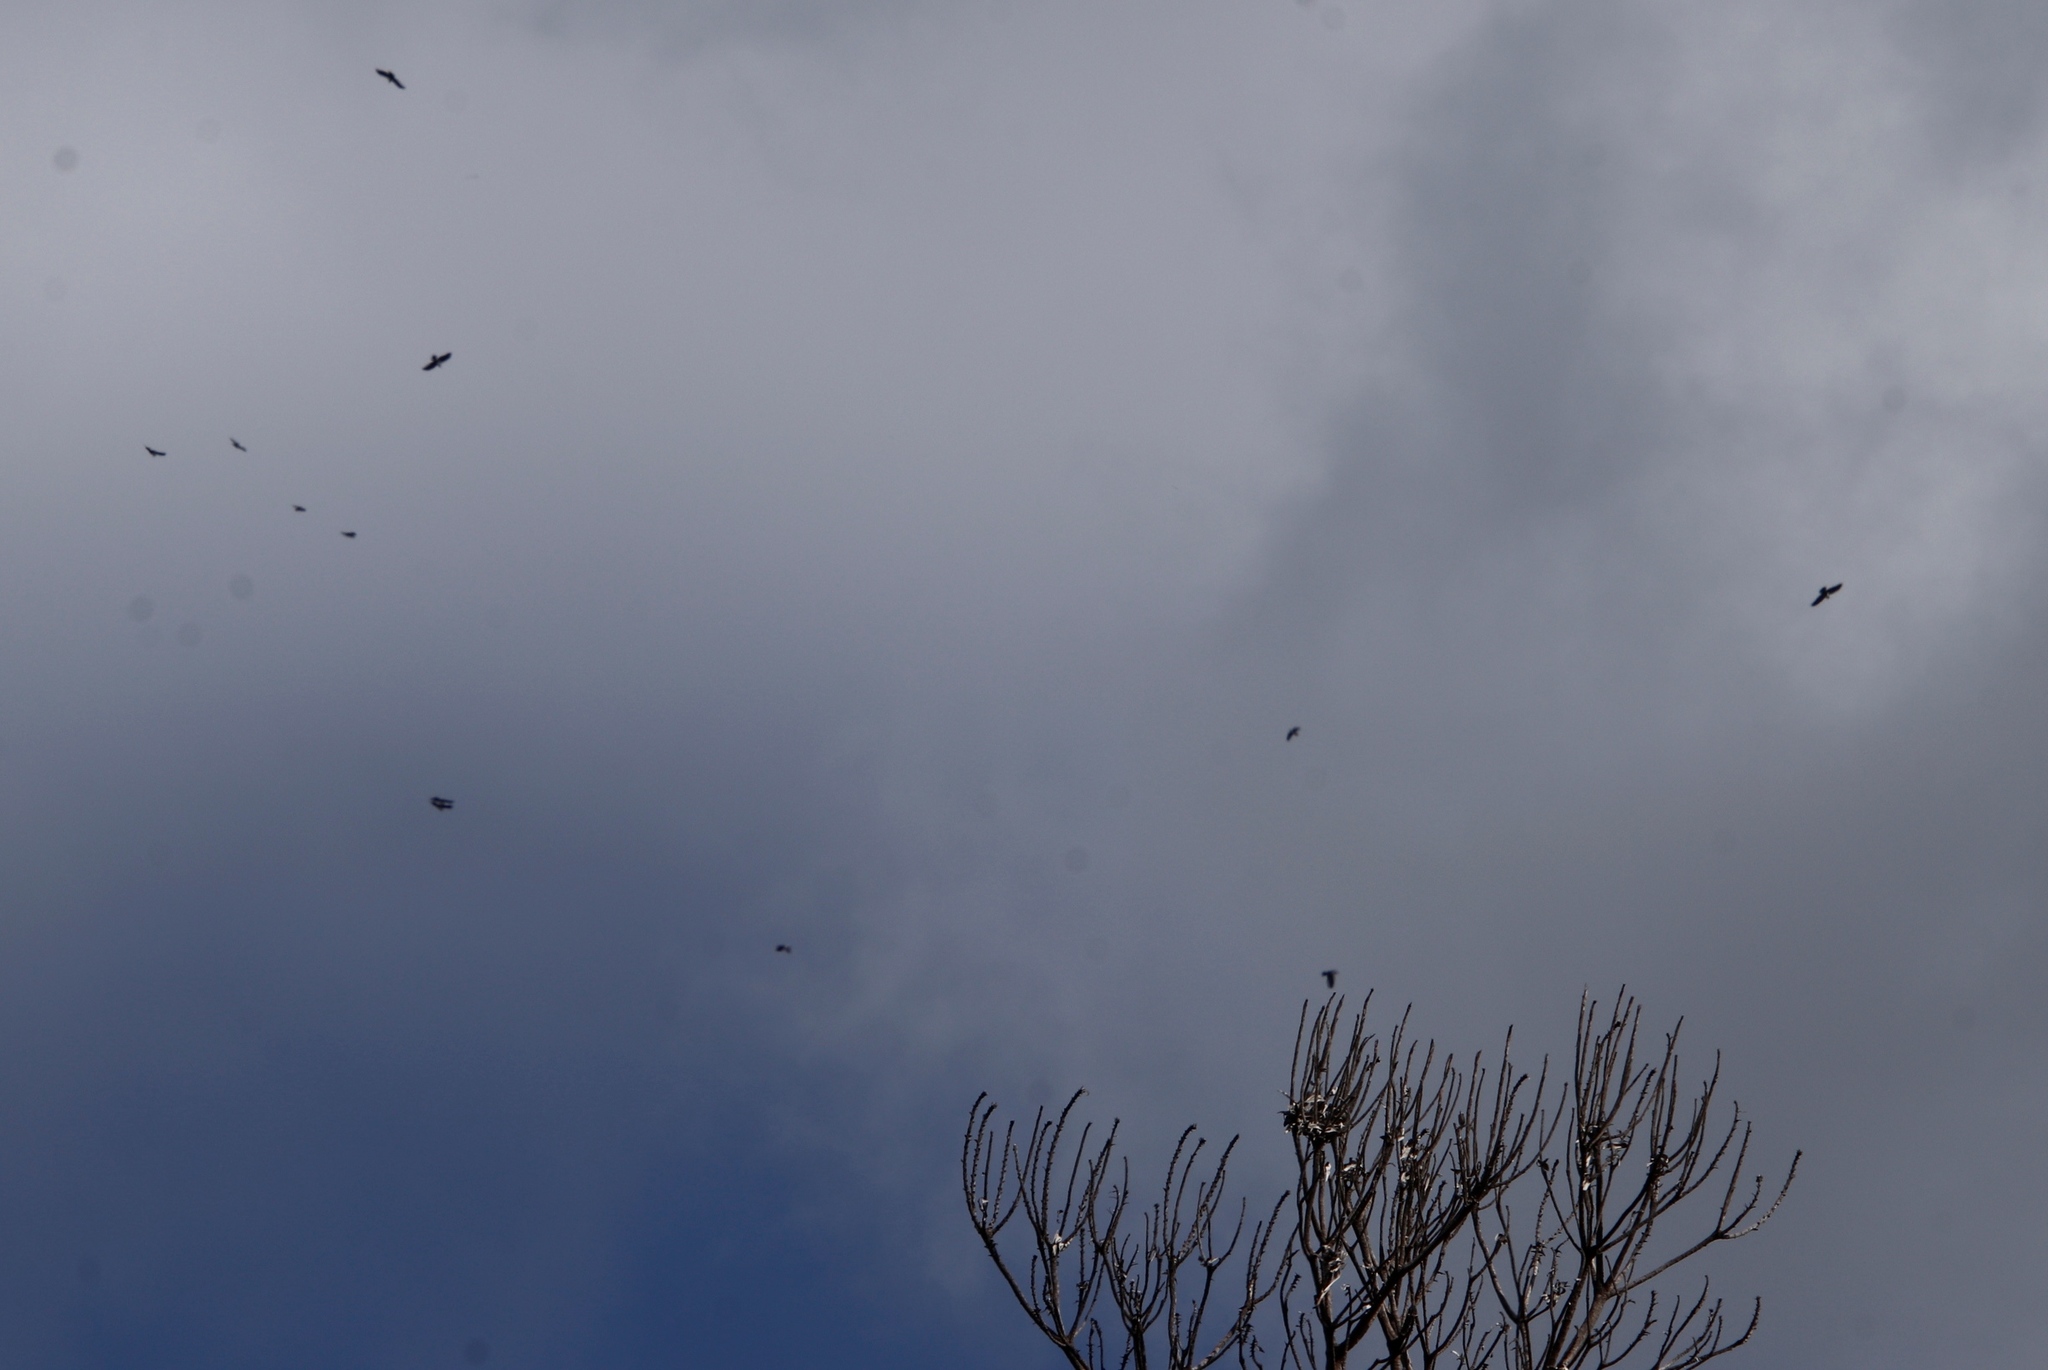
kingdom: Animalia
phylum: Chordata
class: Aves
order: Passeriformes
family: Corvidae
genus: Corvus
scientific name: Corvus albus
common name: Pied crow
